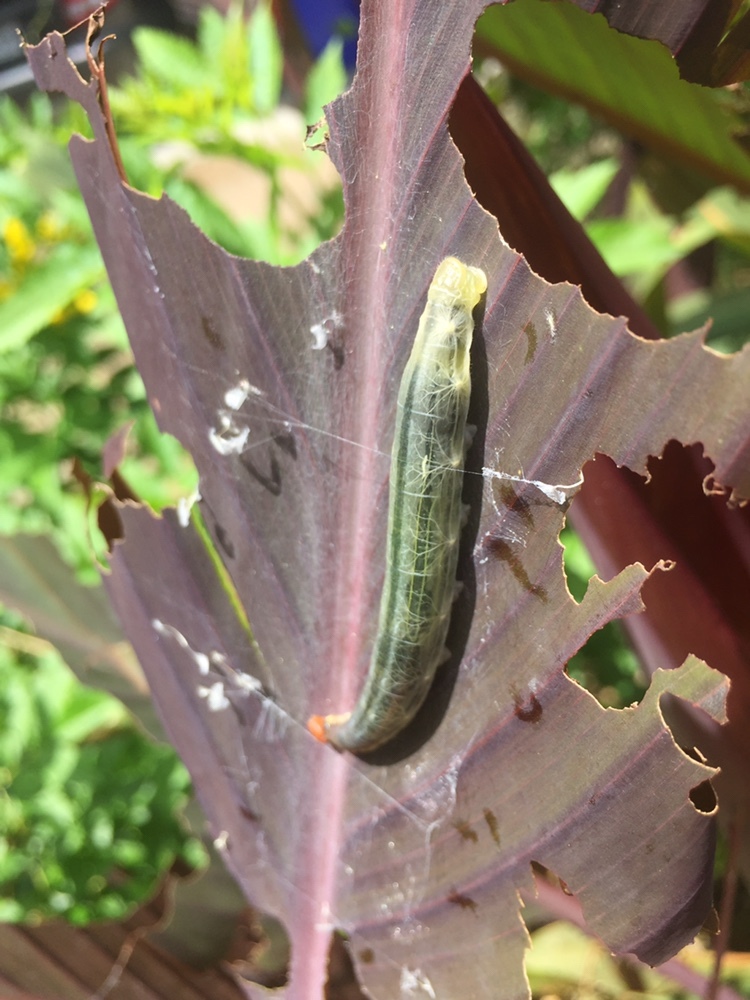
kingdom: Animalia
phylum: Arthropoda
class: Insecta
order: Lepidoptera
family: Hesperiidae
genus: Calpodes
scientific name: Calpodes ethlius
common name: Brazilian skipper
